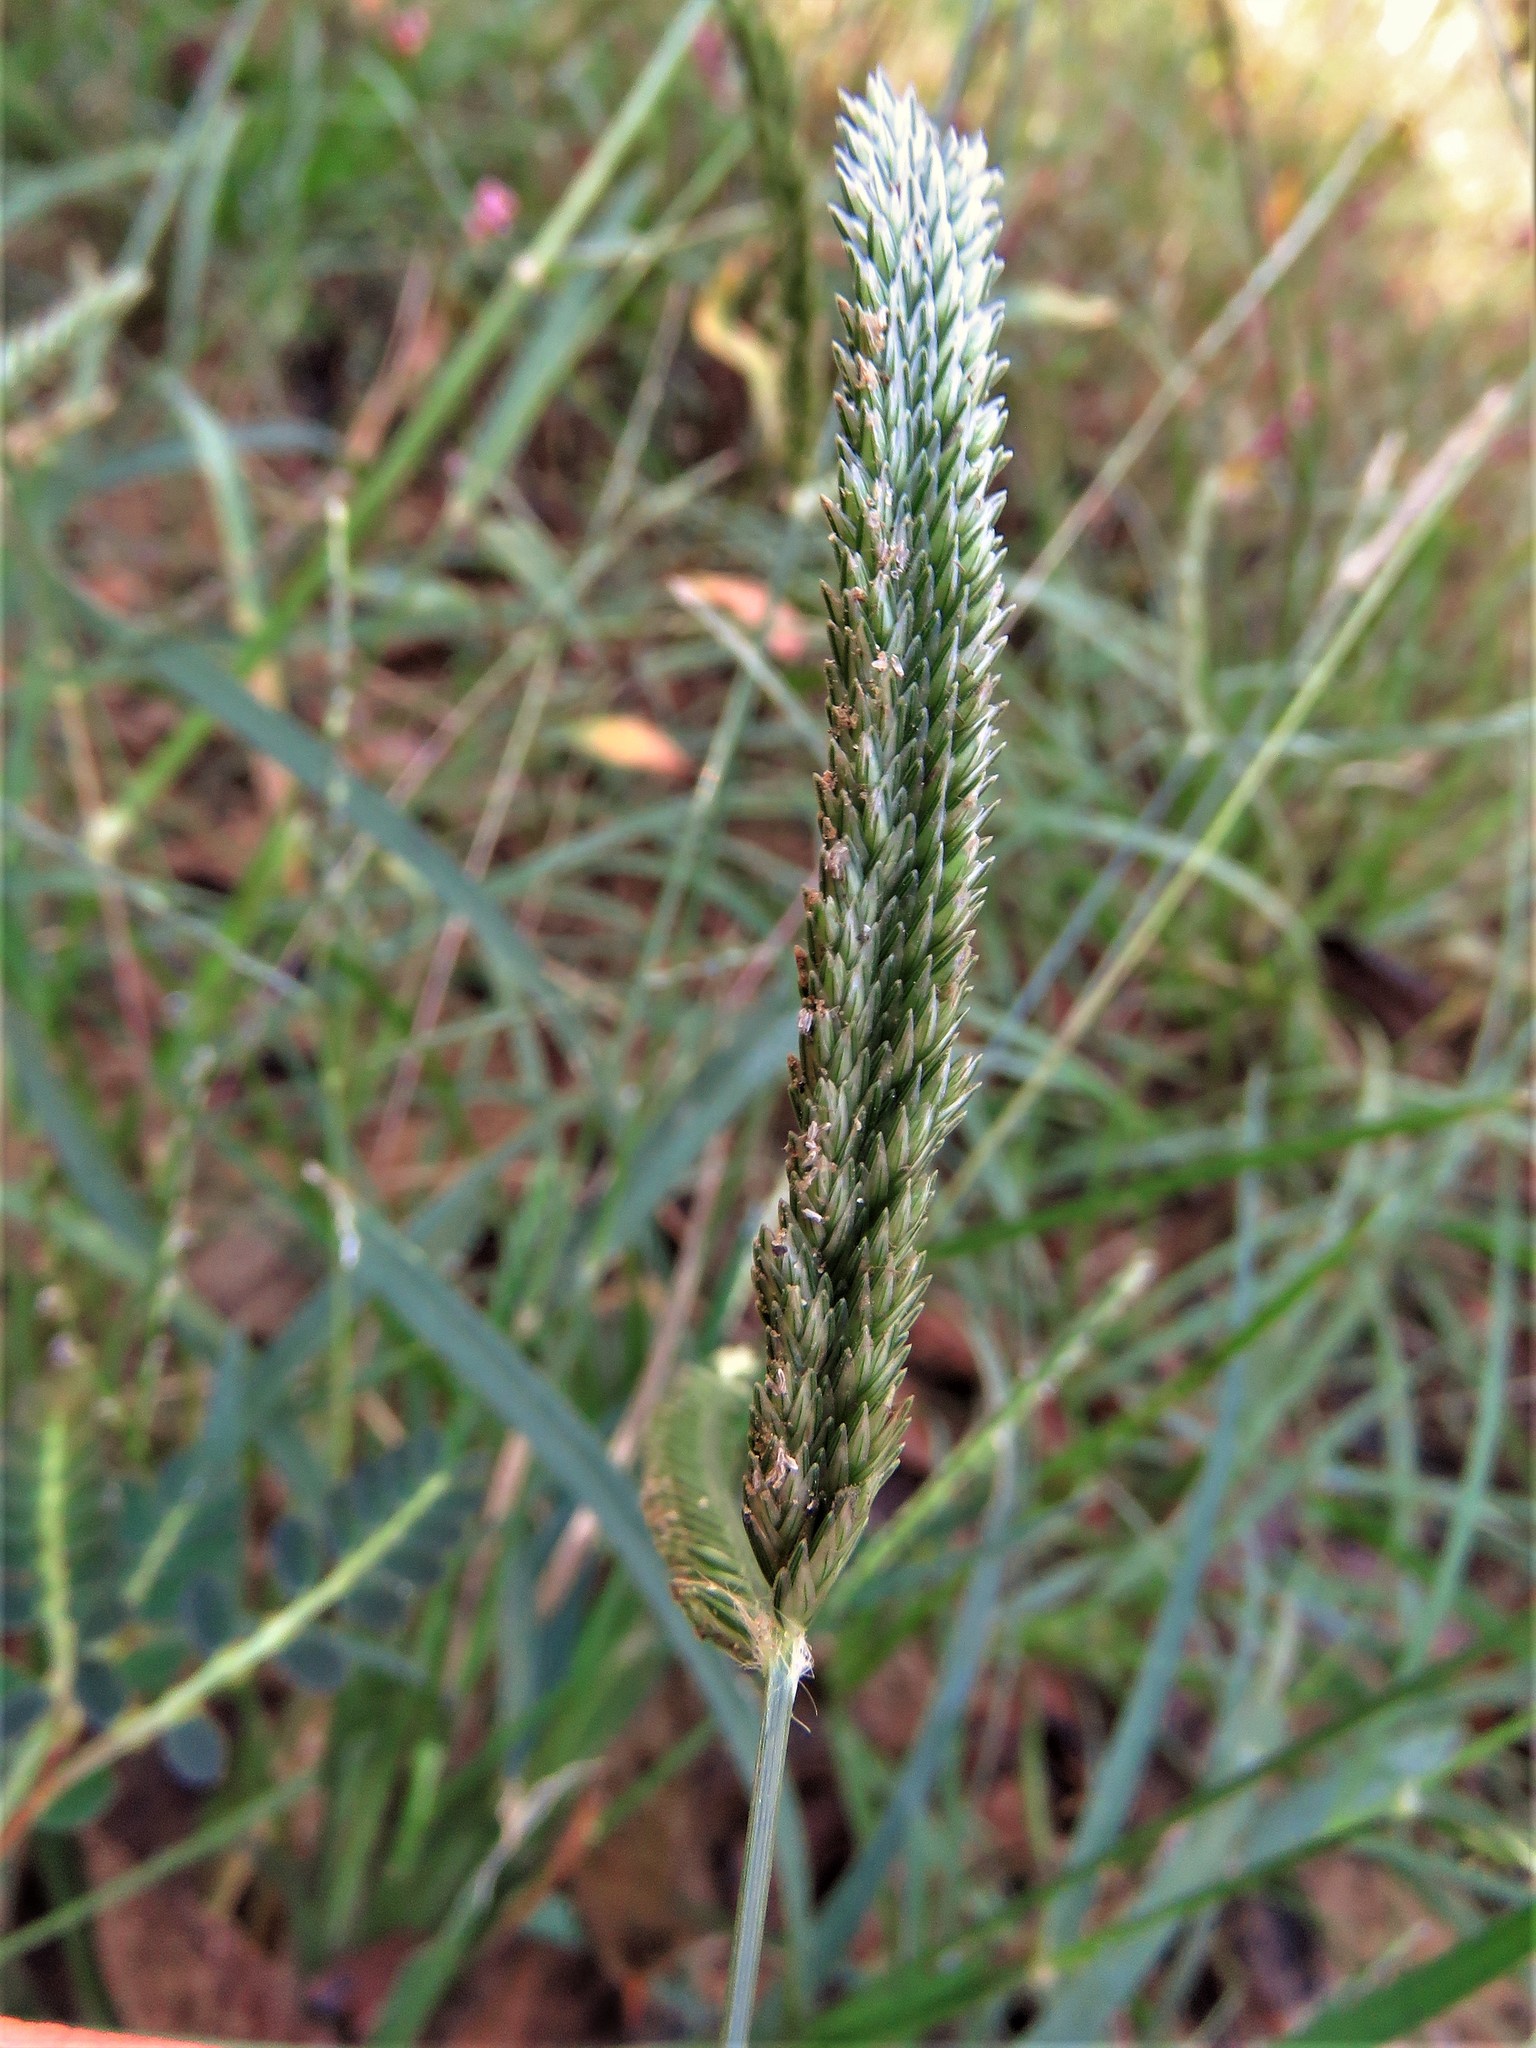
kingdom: Plantae
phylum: Tracheophyta
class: Liliopsida
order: Poales
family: Poaceae
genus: Eleusine
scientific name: Eleusine indica
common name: Yard-grass
